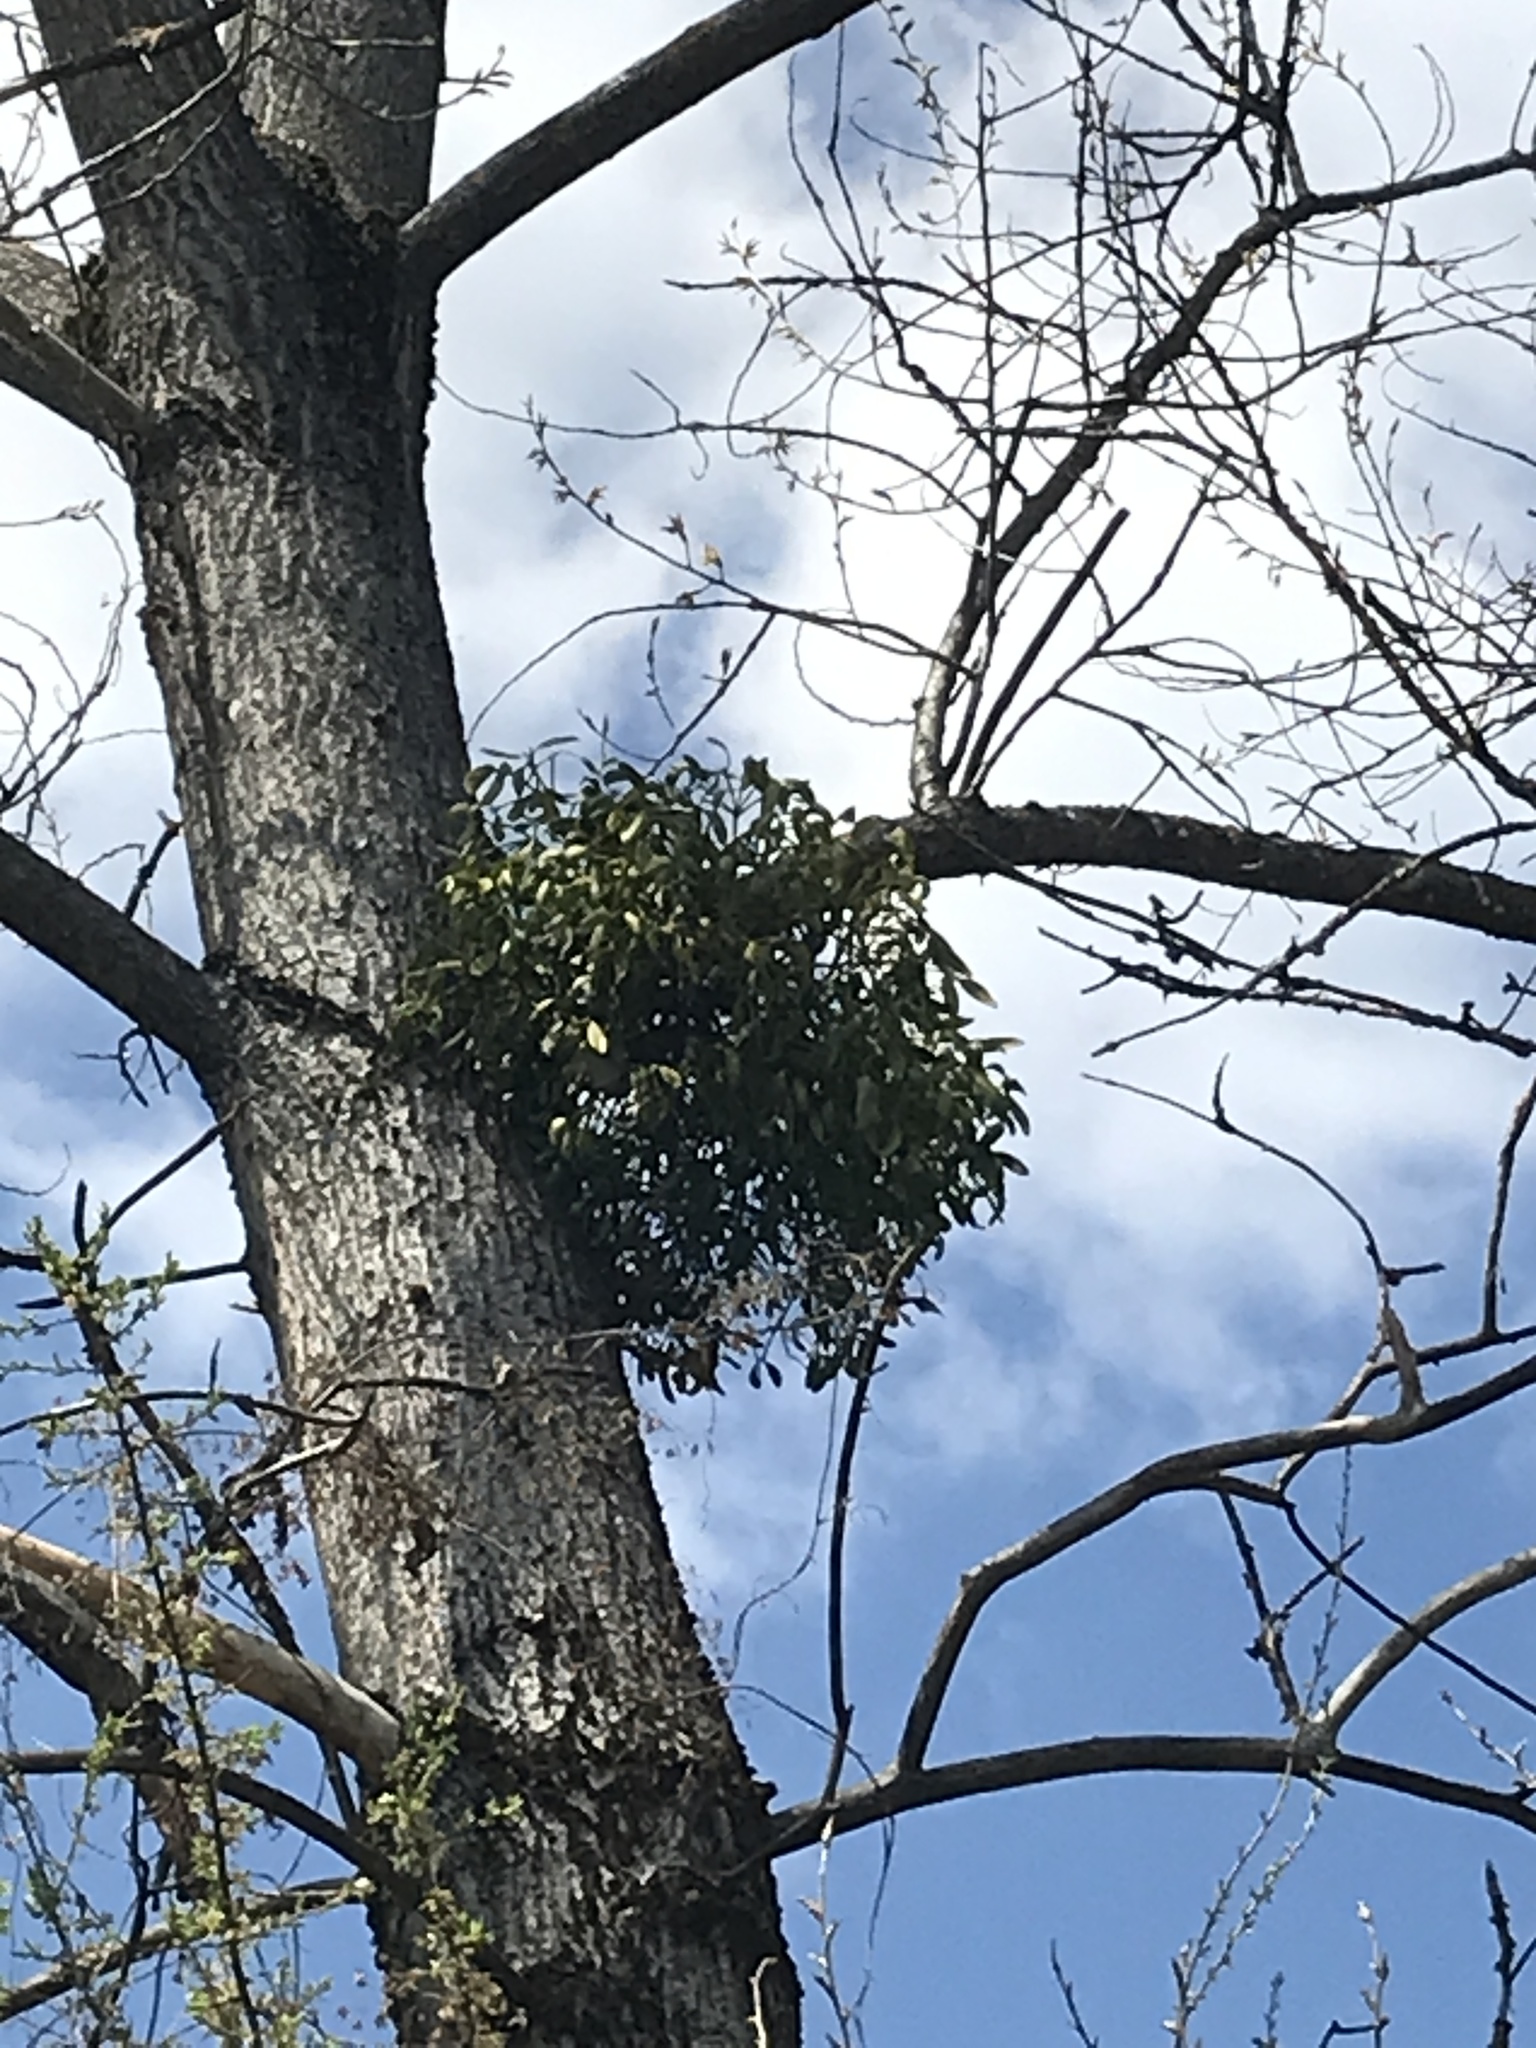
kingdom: Plantae
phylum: Tracheophyta
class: Magnoliopsida
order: Santalales
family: Viscaceae
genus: Viscum
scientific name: Viscum album
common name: Mistletoe
